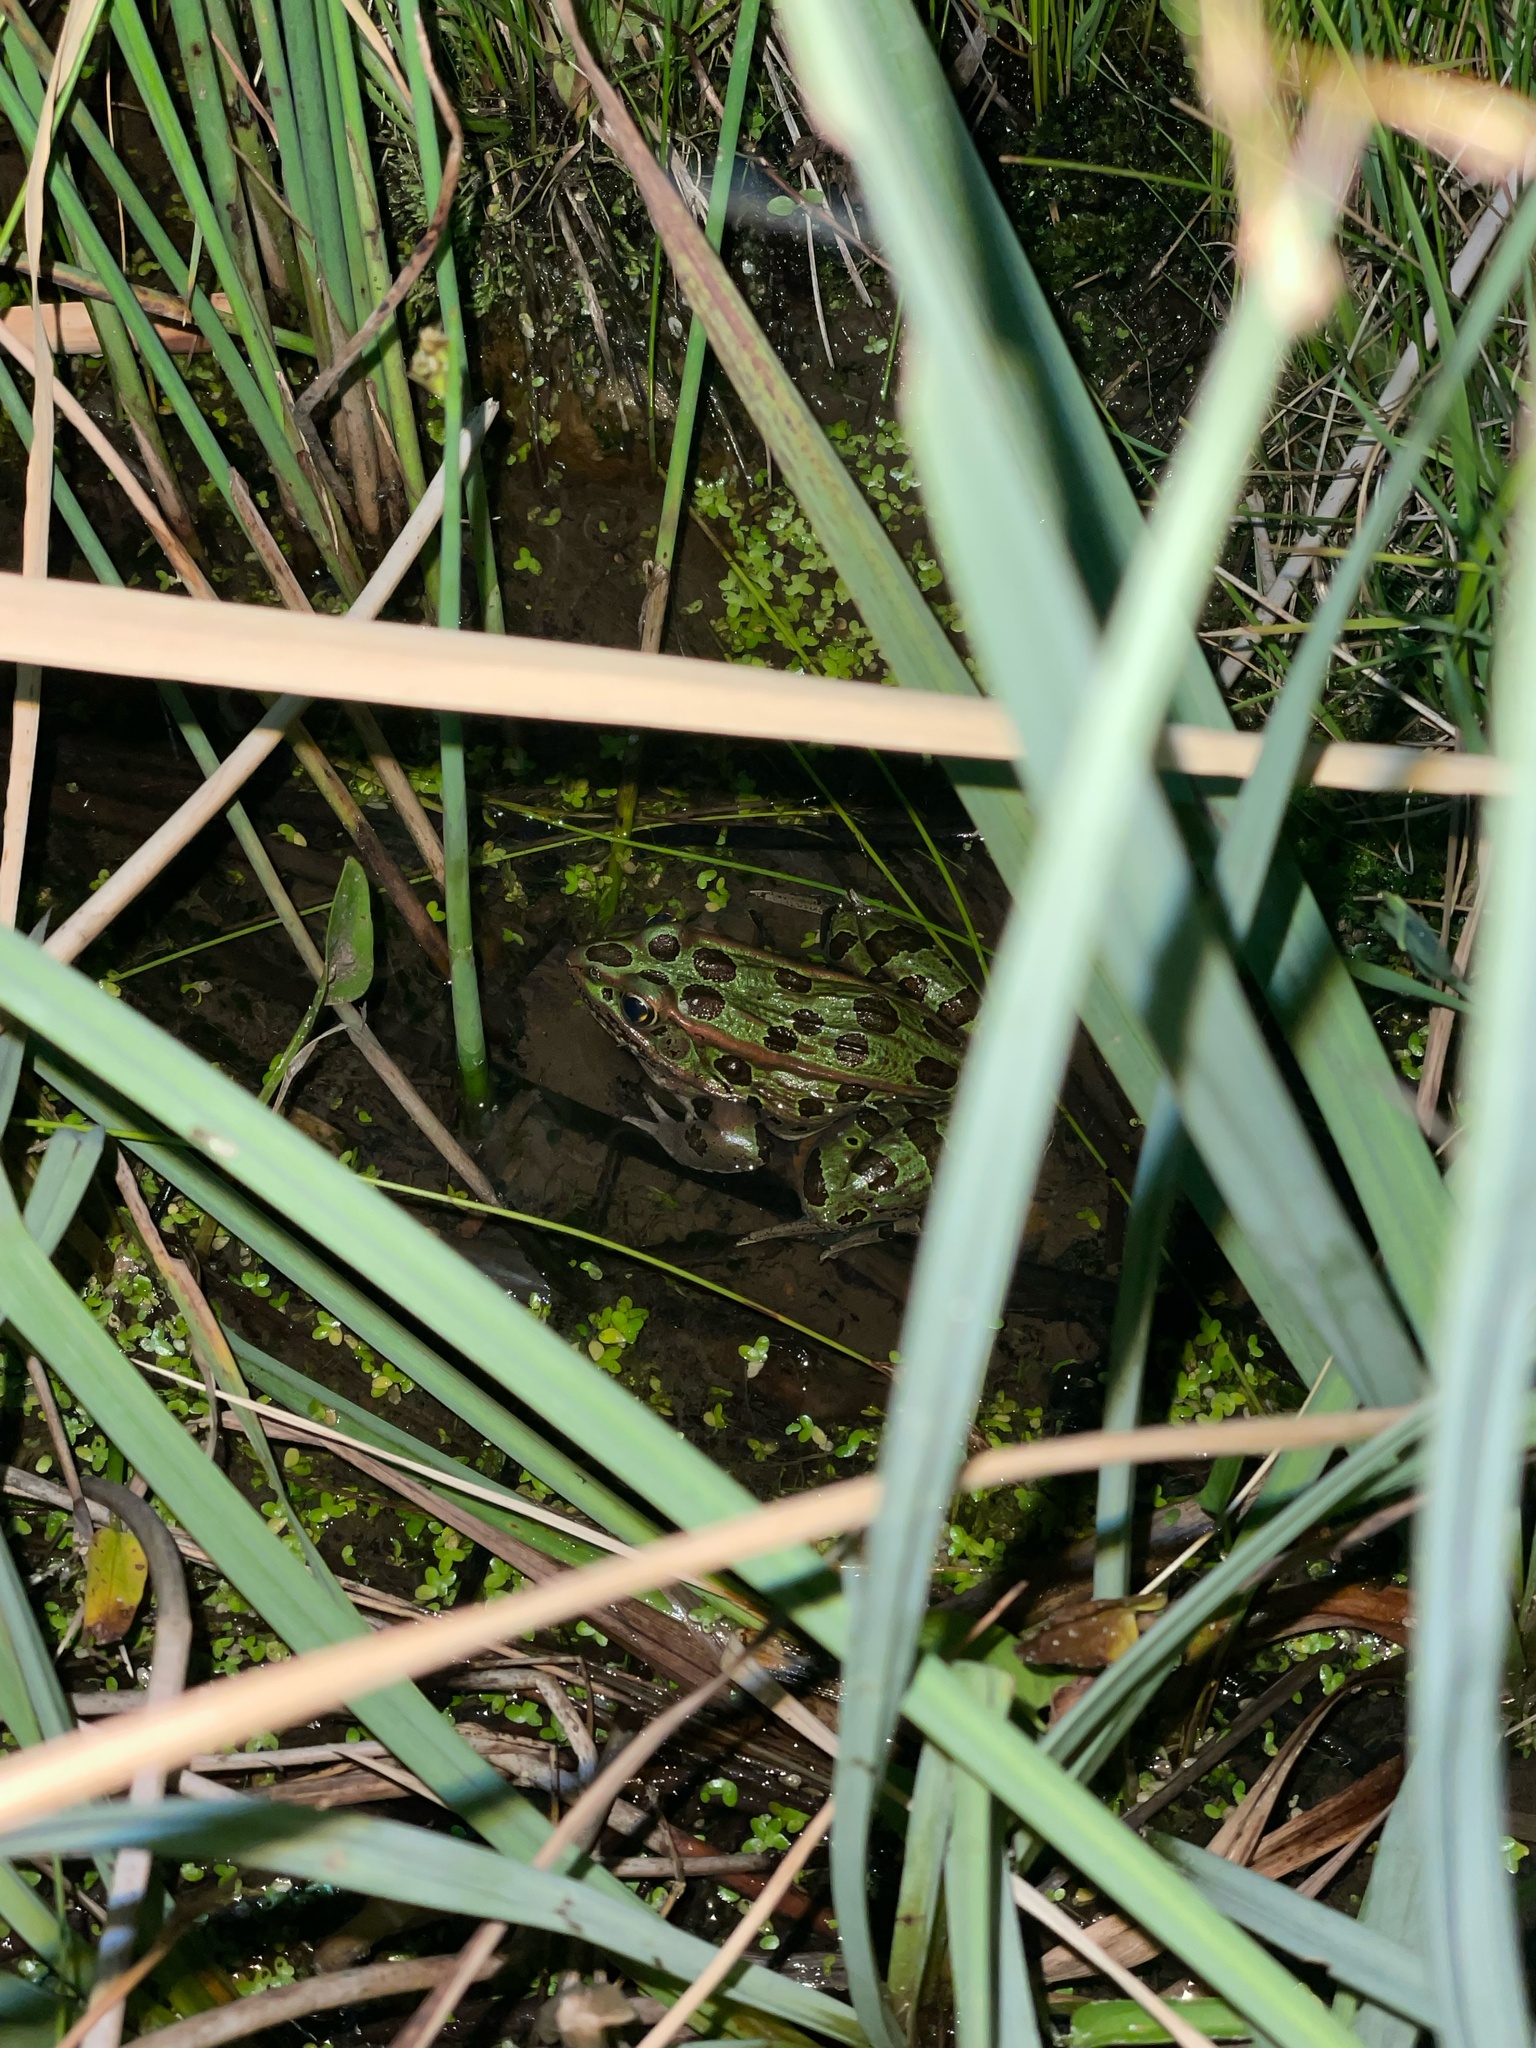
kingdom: Animalia
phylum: Chordata
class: Amphibia
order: Anura
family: Ranidae
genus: Lithobates
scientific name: Lithobates pipiens
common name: Northern leopard frog
